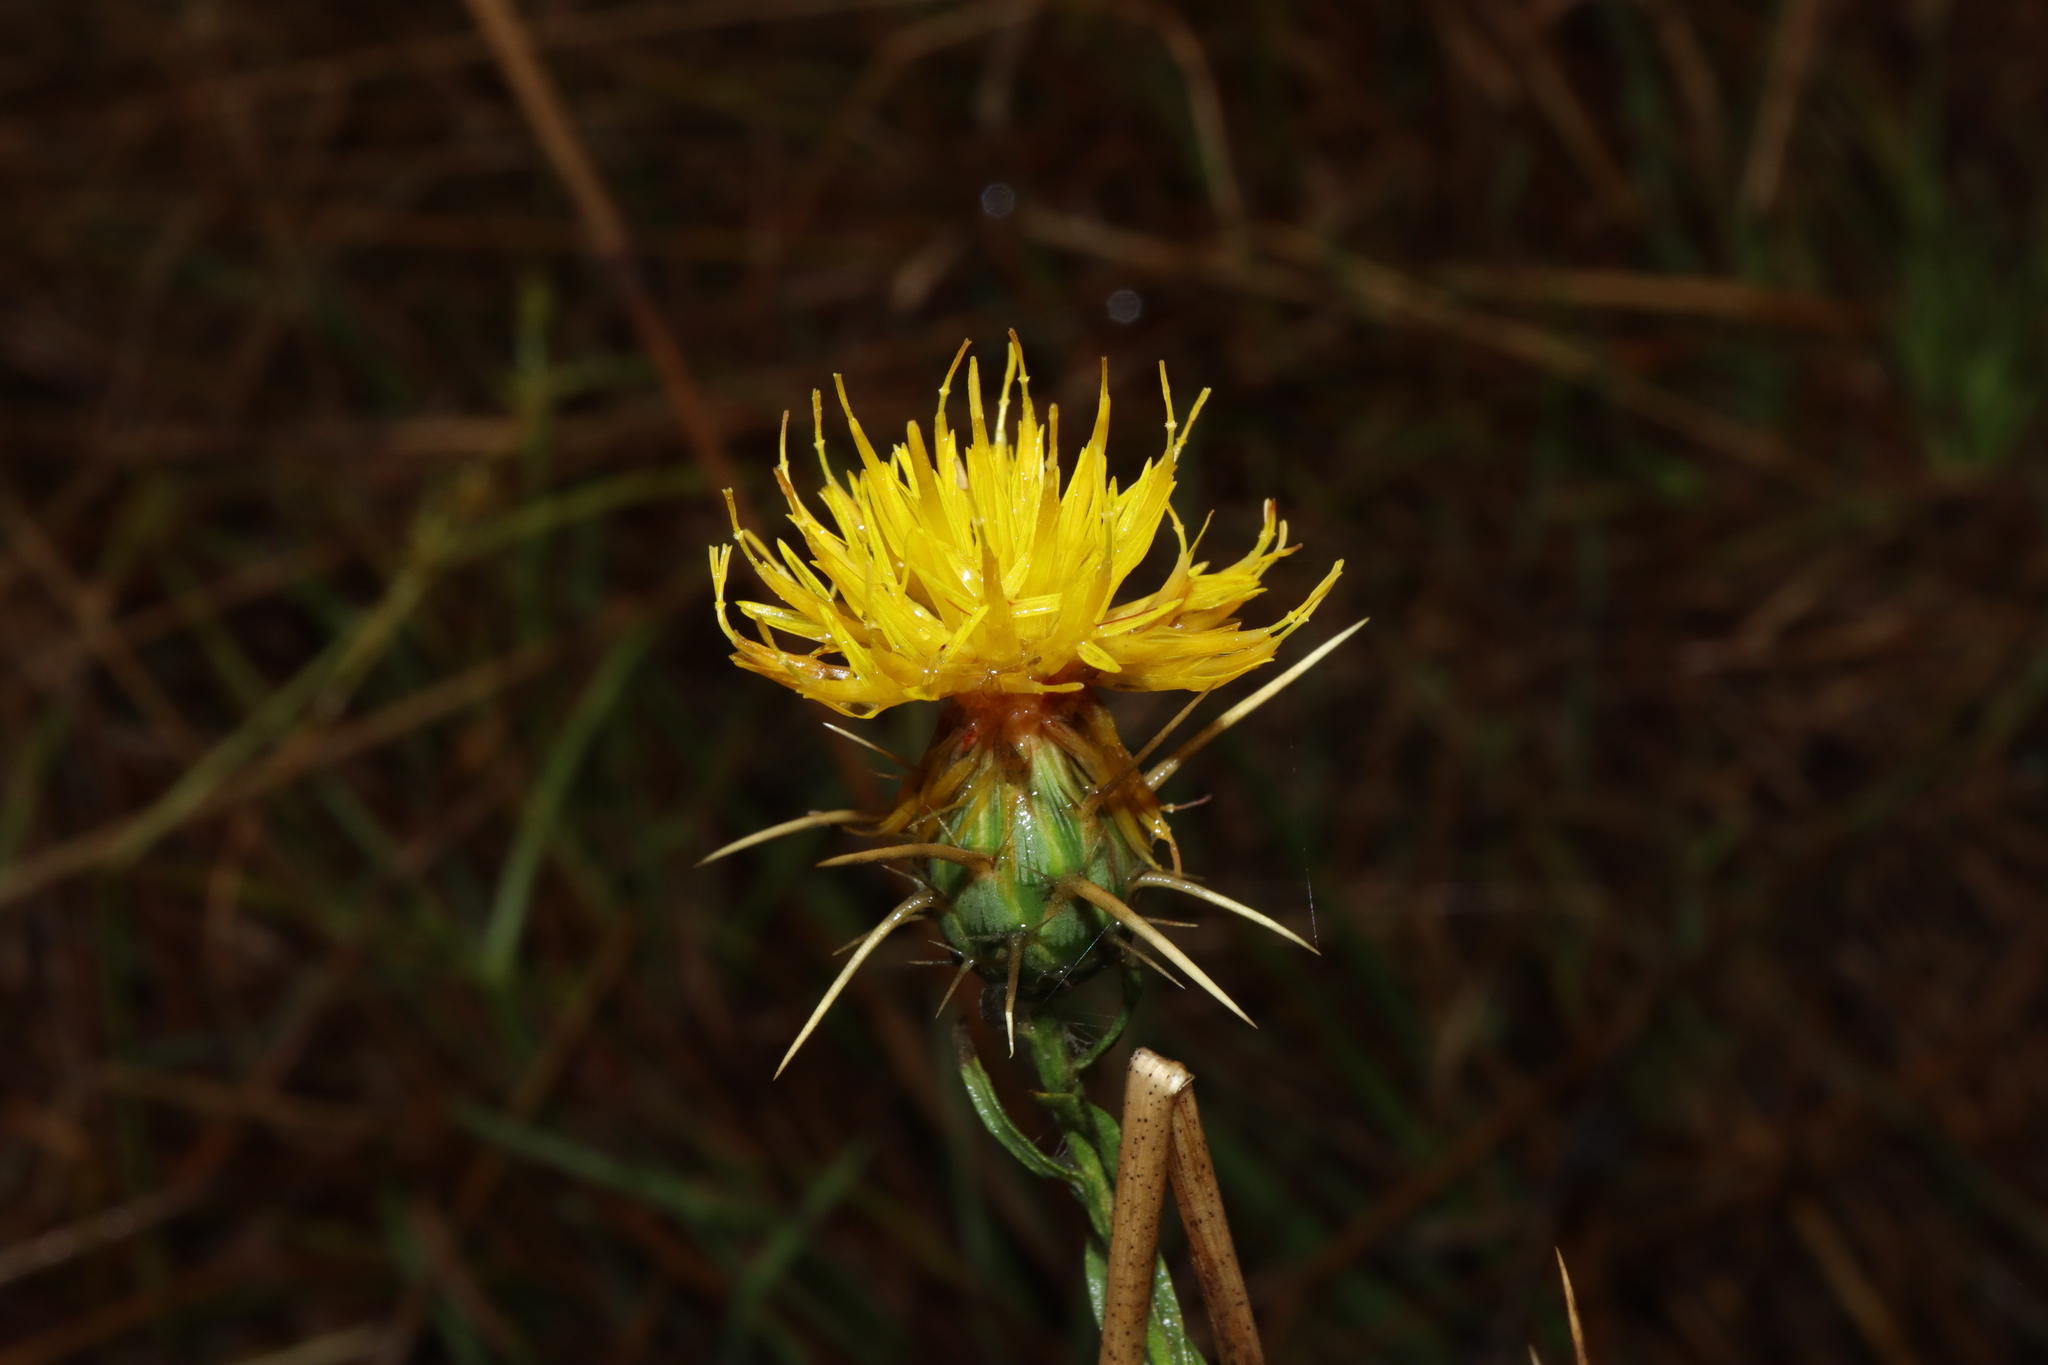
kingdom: Plantae
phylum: Tracheophyta
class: Magnoliopsida
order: Asterales
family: Asteraceae
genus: Centaurea
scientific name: Centaurea solstitialis
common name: Yellow star-thistle
